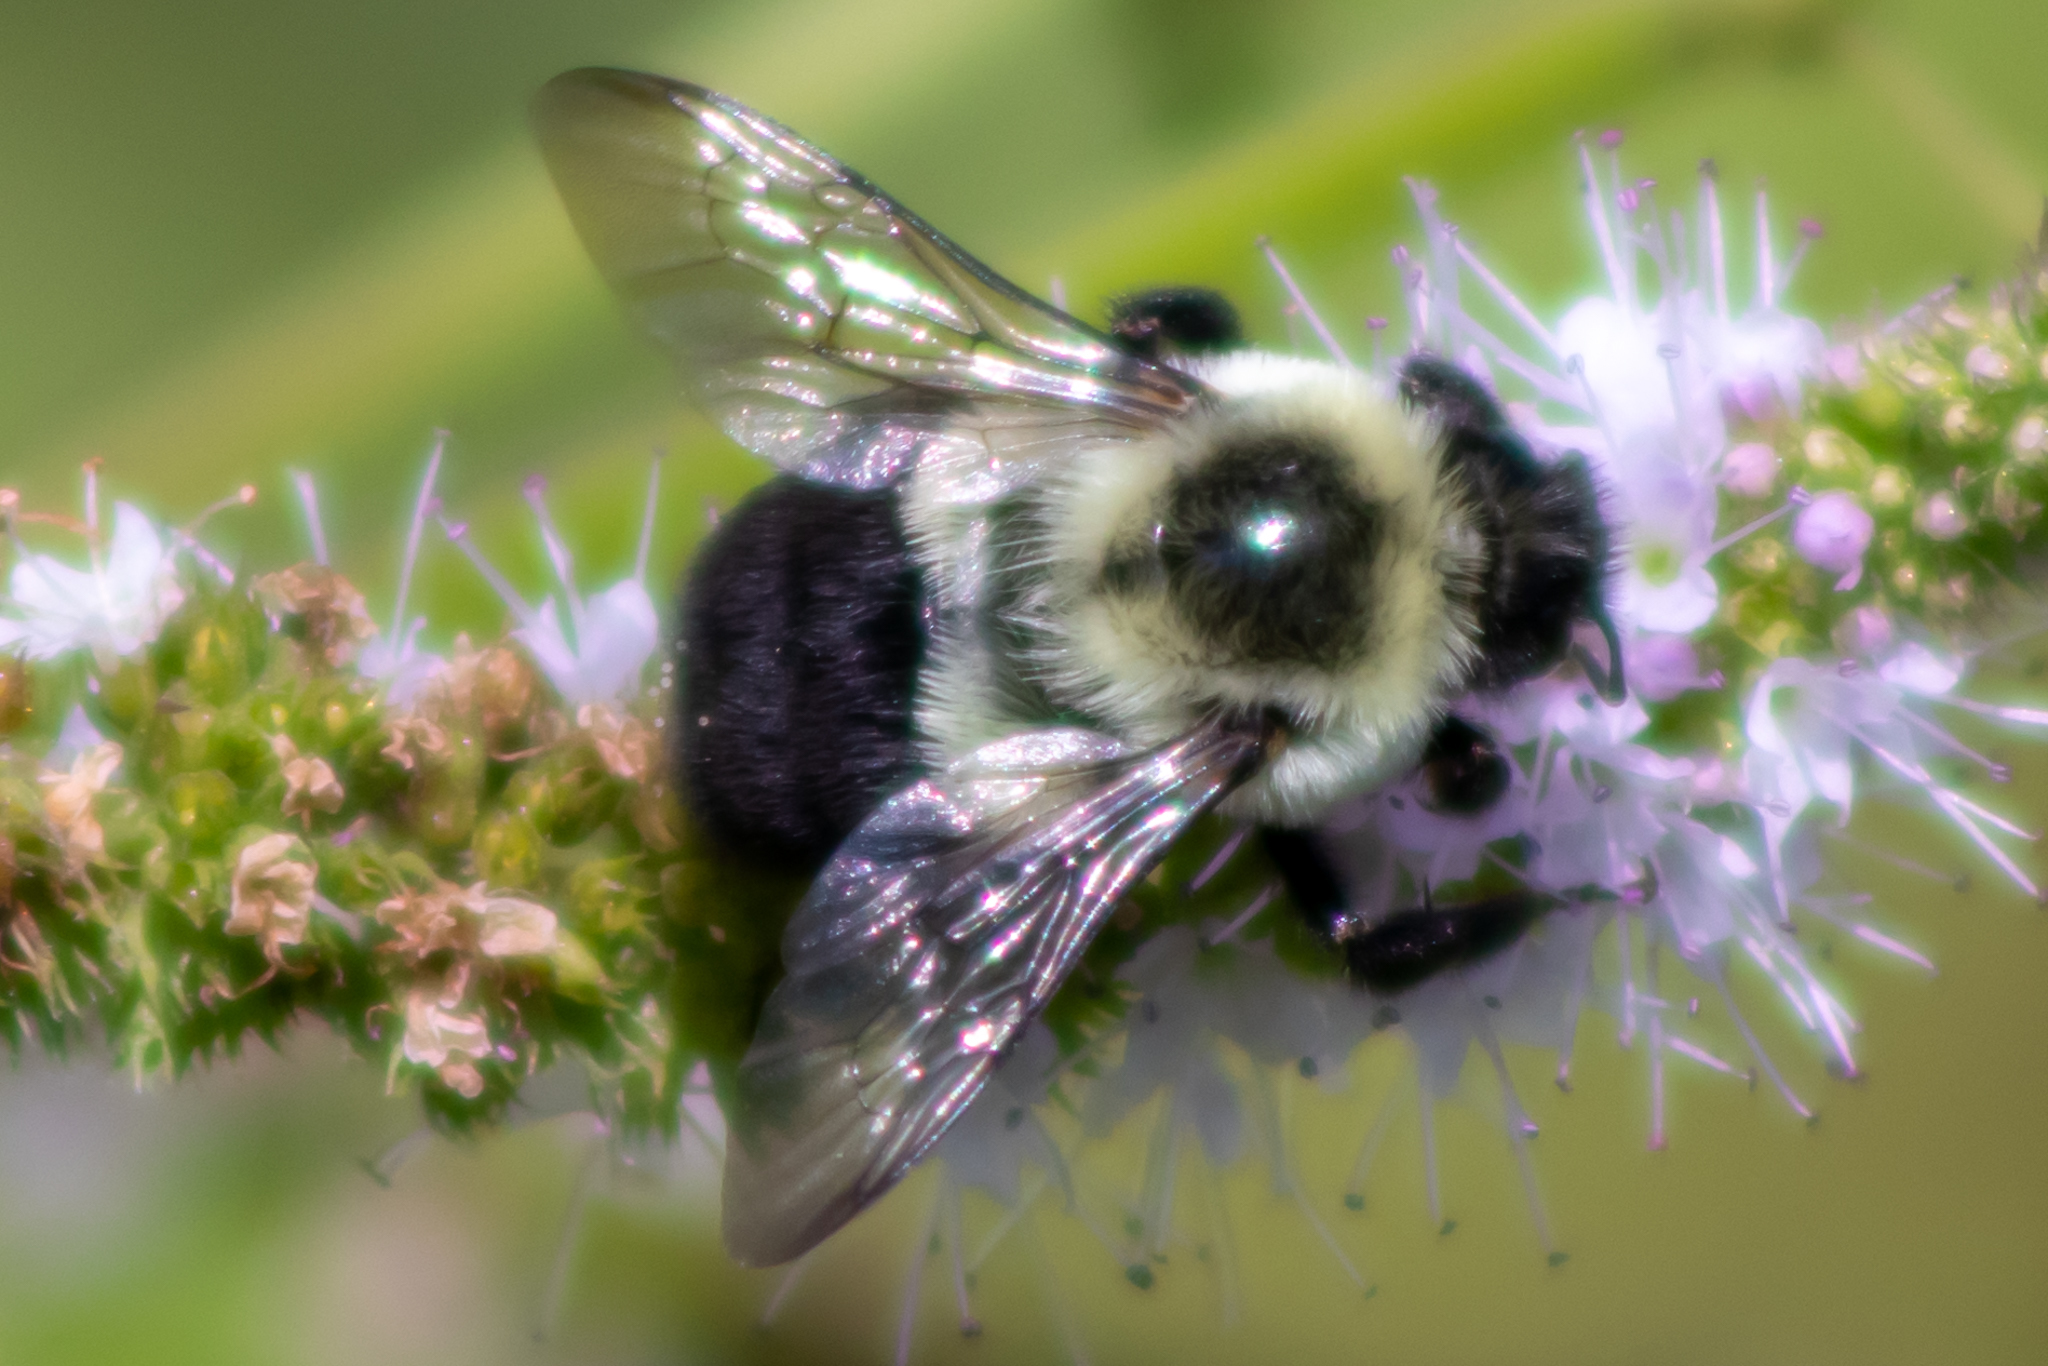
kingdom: Animalia
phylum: Arthropoda
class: Insecta
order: Hymenoptera
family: Apidae
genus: Bombus
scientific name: Bombus impatiens
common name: Common eastern bumble bee
